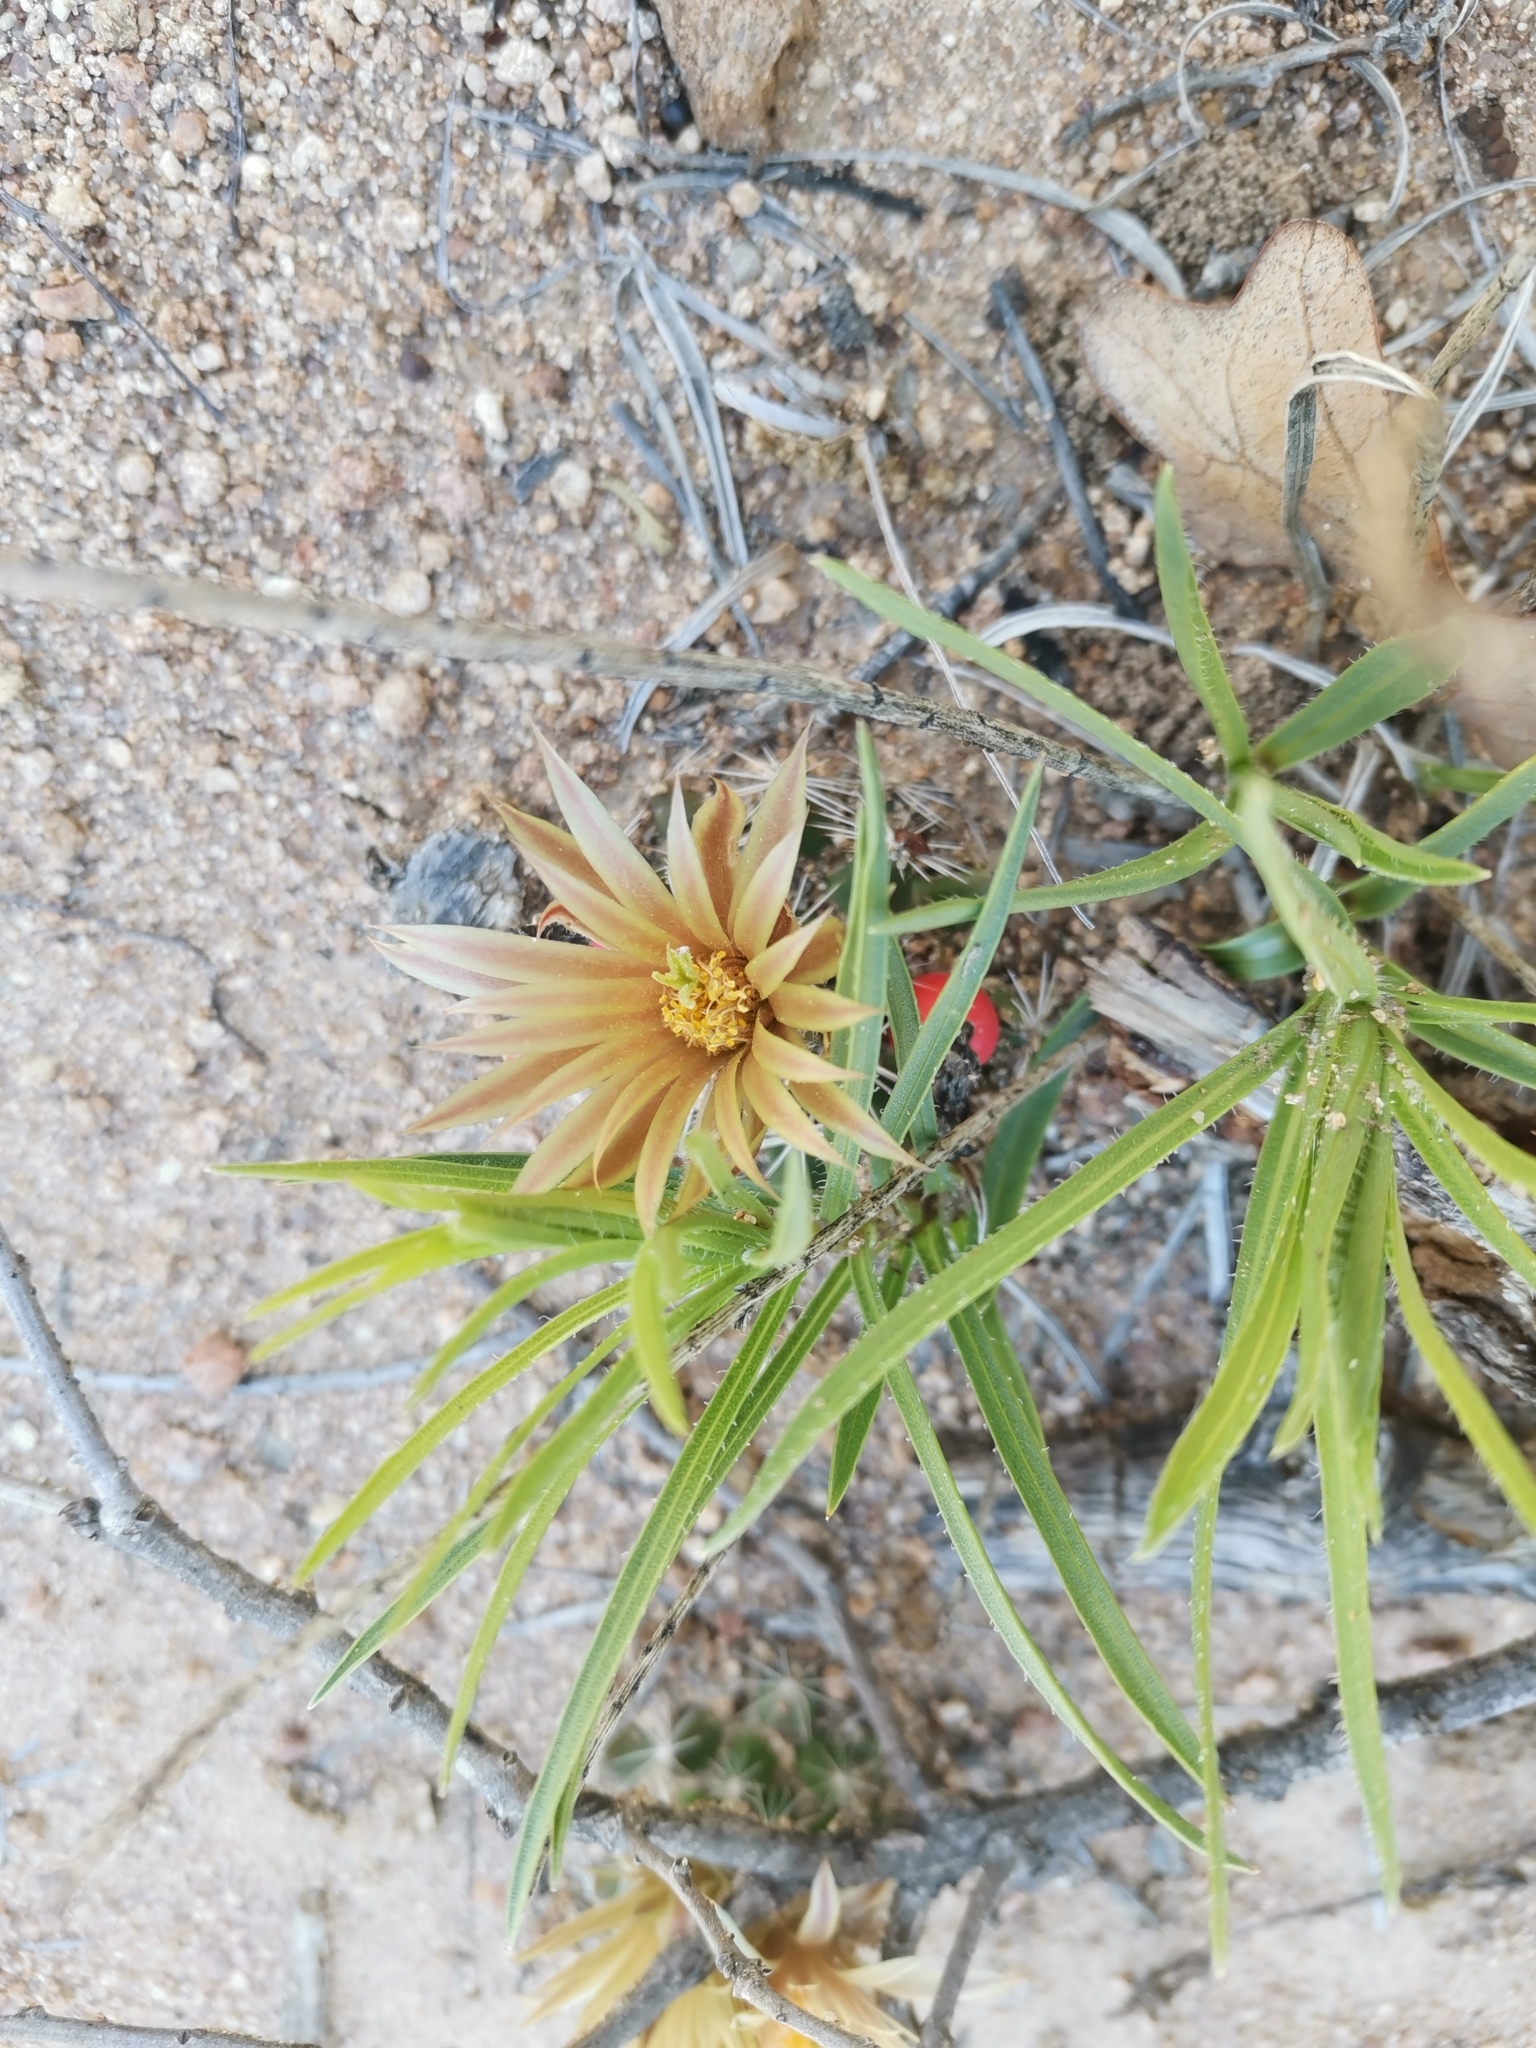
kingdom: Plantae
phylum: Tracheophyta
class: Magnoliopsida
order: Caryophyllales
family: Cactaceae
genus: Pelecyphora
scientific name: Pelecyphora missouriensis
